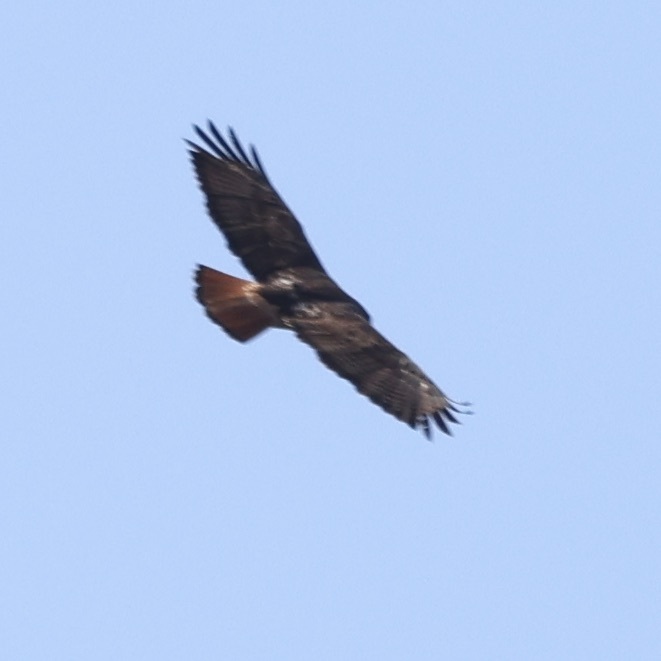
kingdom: Animalia
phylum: Chordata
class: Aves
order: Accipitriformes
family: Accipitridae
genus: Buteo
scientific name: Buteo jamaicensis
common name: Red-tailed hawk
